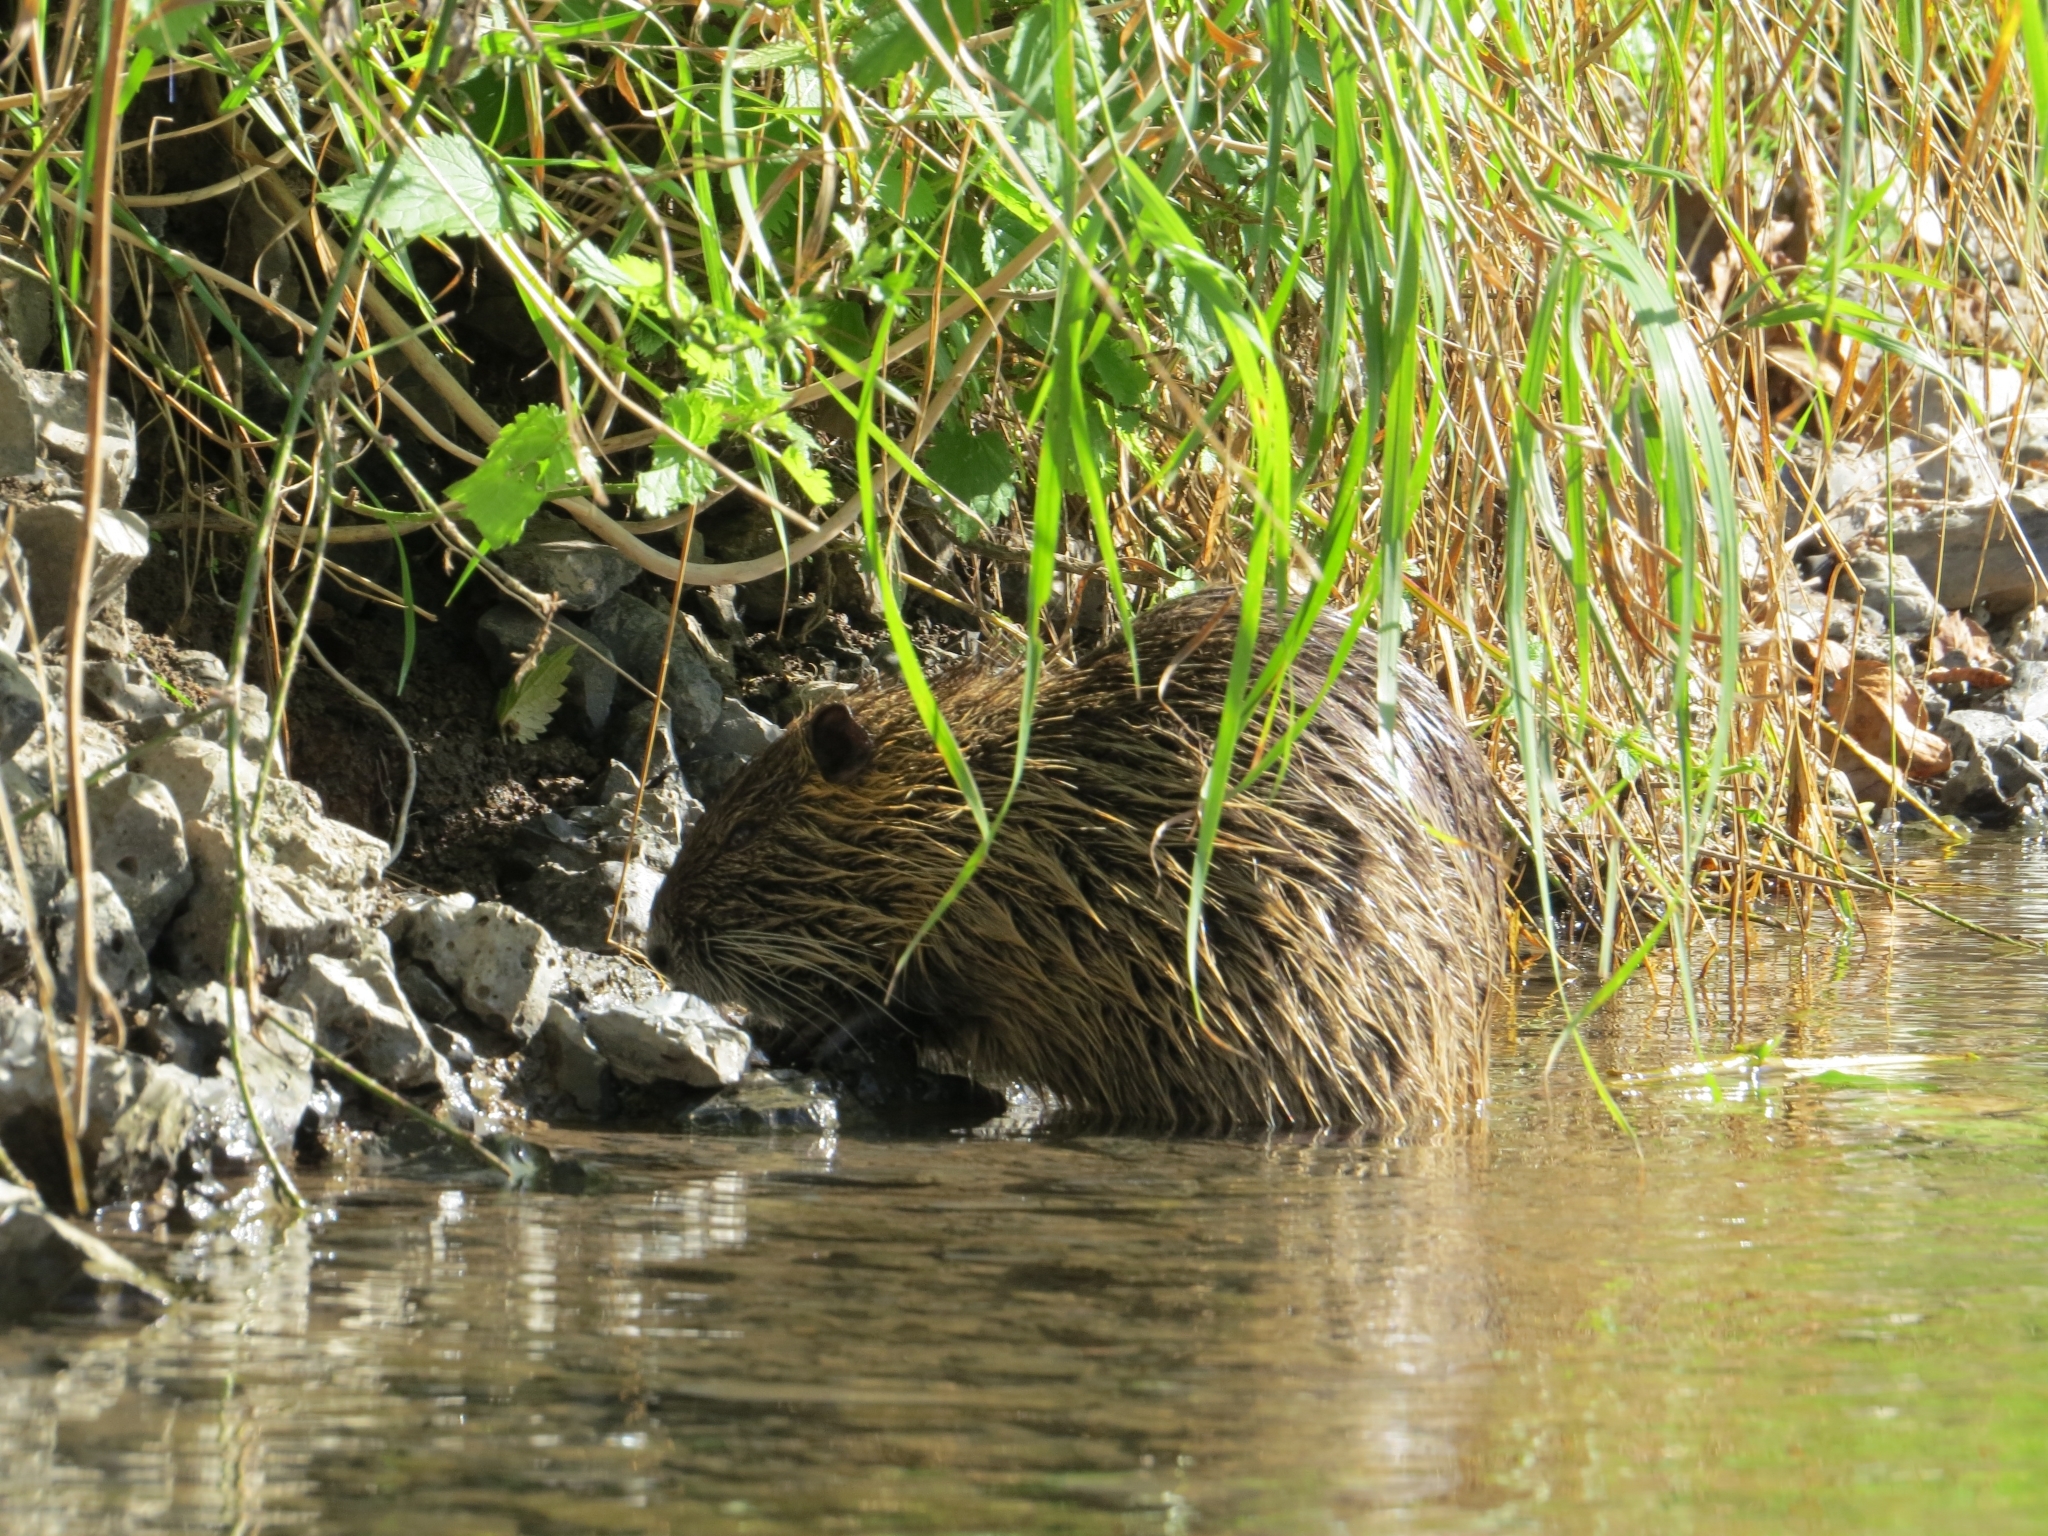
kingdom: Animalia
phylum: Chordata
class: Mammalia
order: Rodentia
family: Myocastoridae
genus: Myocastor
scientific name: Myocastor coypus
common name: Coypu
